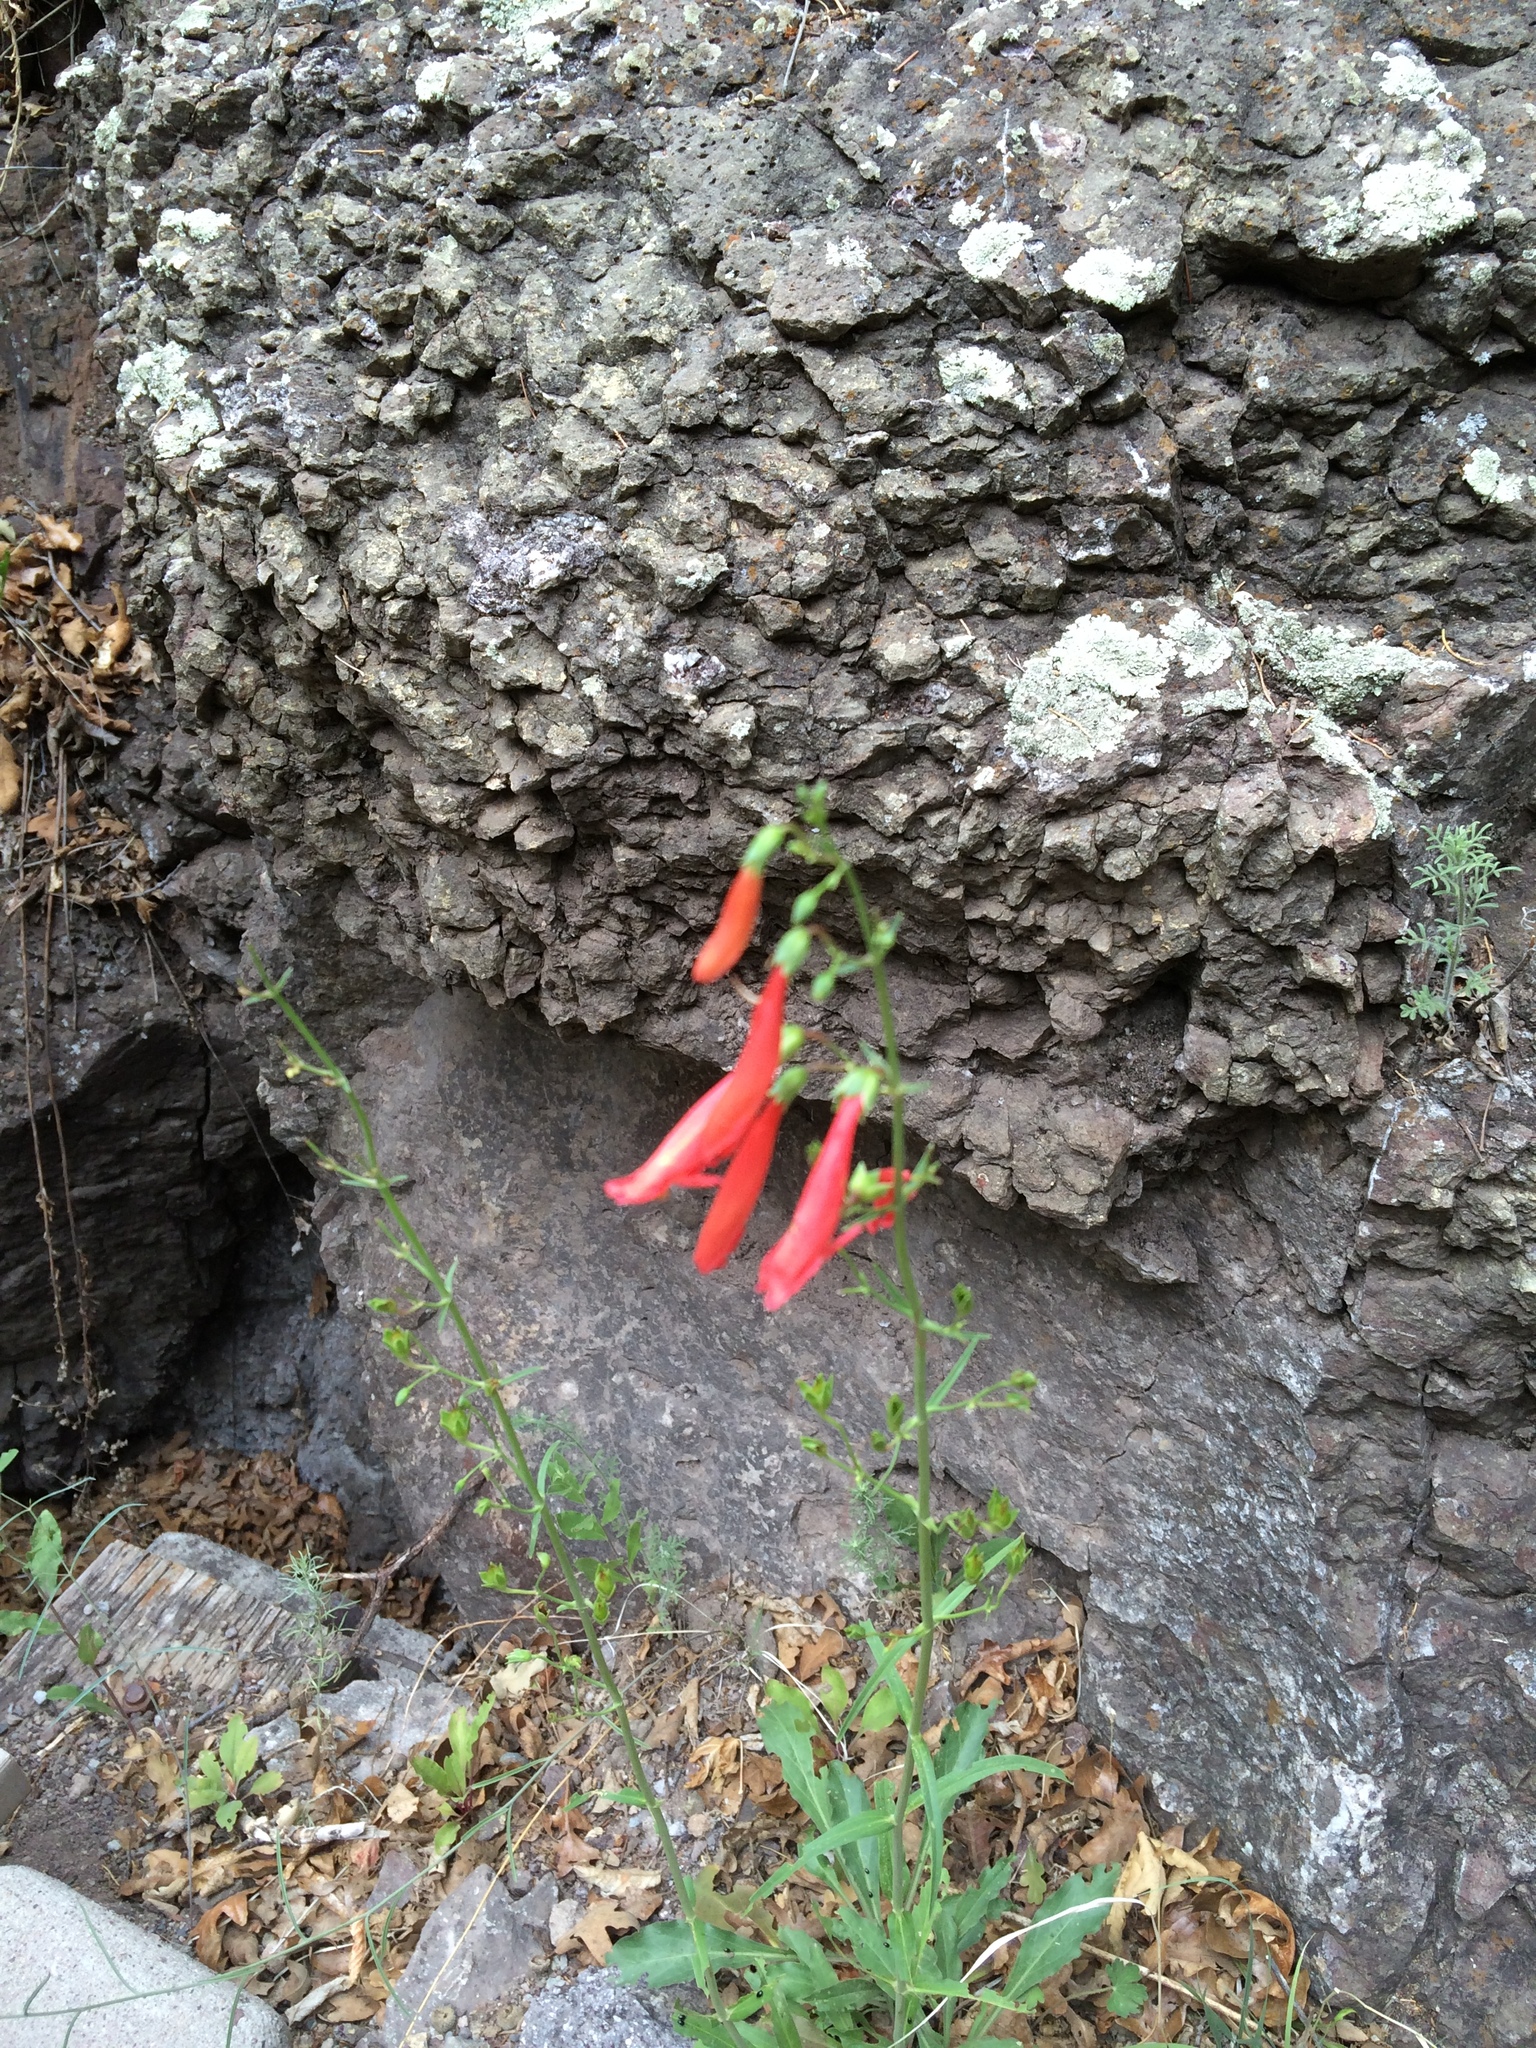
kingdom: Plantae
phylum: Tracheophyta
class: Magnoliopsida
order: Lamiales
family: Plantaginaceae
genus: Penstemon
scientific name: Penstemon barbatus
